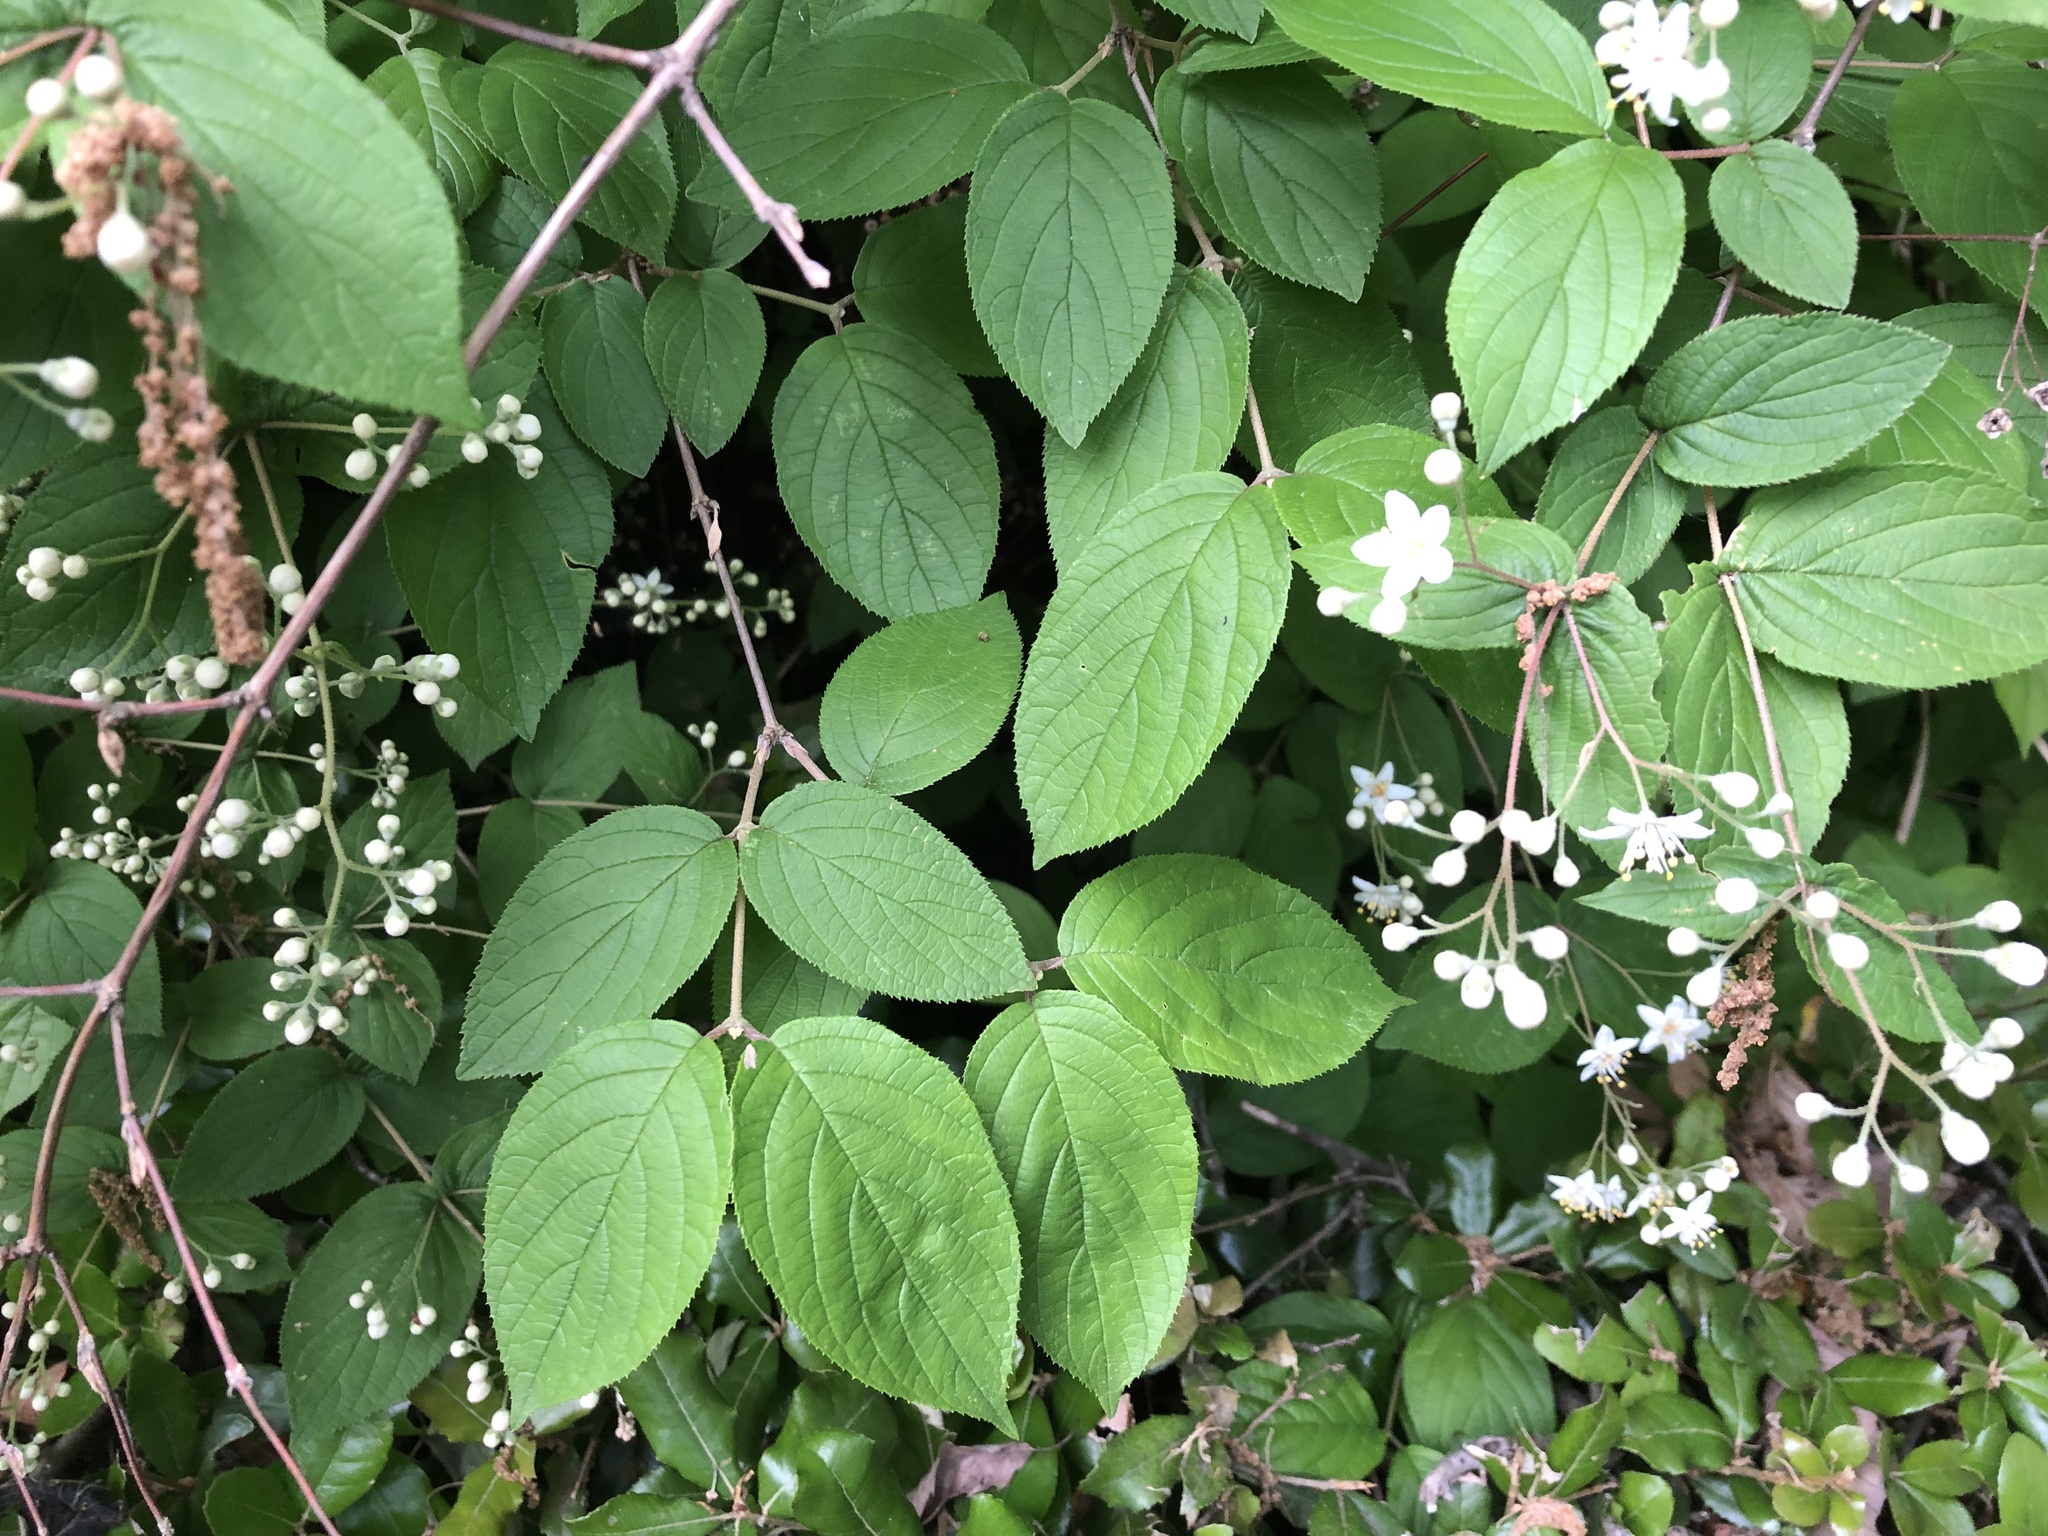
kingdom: Plantae
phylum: Tracheophyta
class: Magnoliopsida
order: Cornales
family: Hydrangeaceae
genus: Deutzia
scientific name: Deutzia scabra
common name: Deutzia
